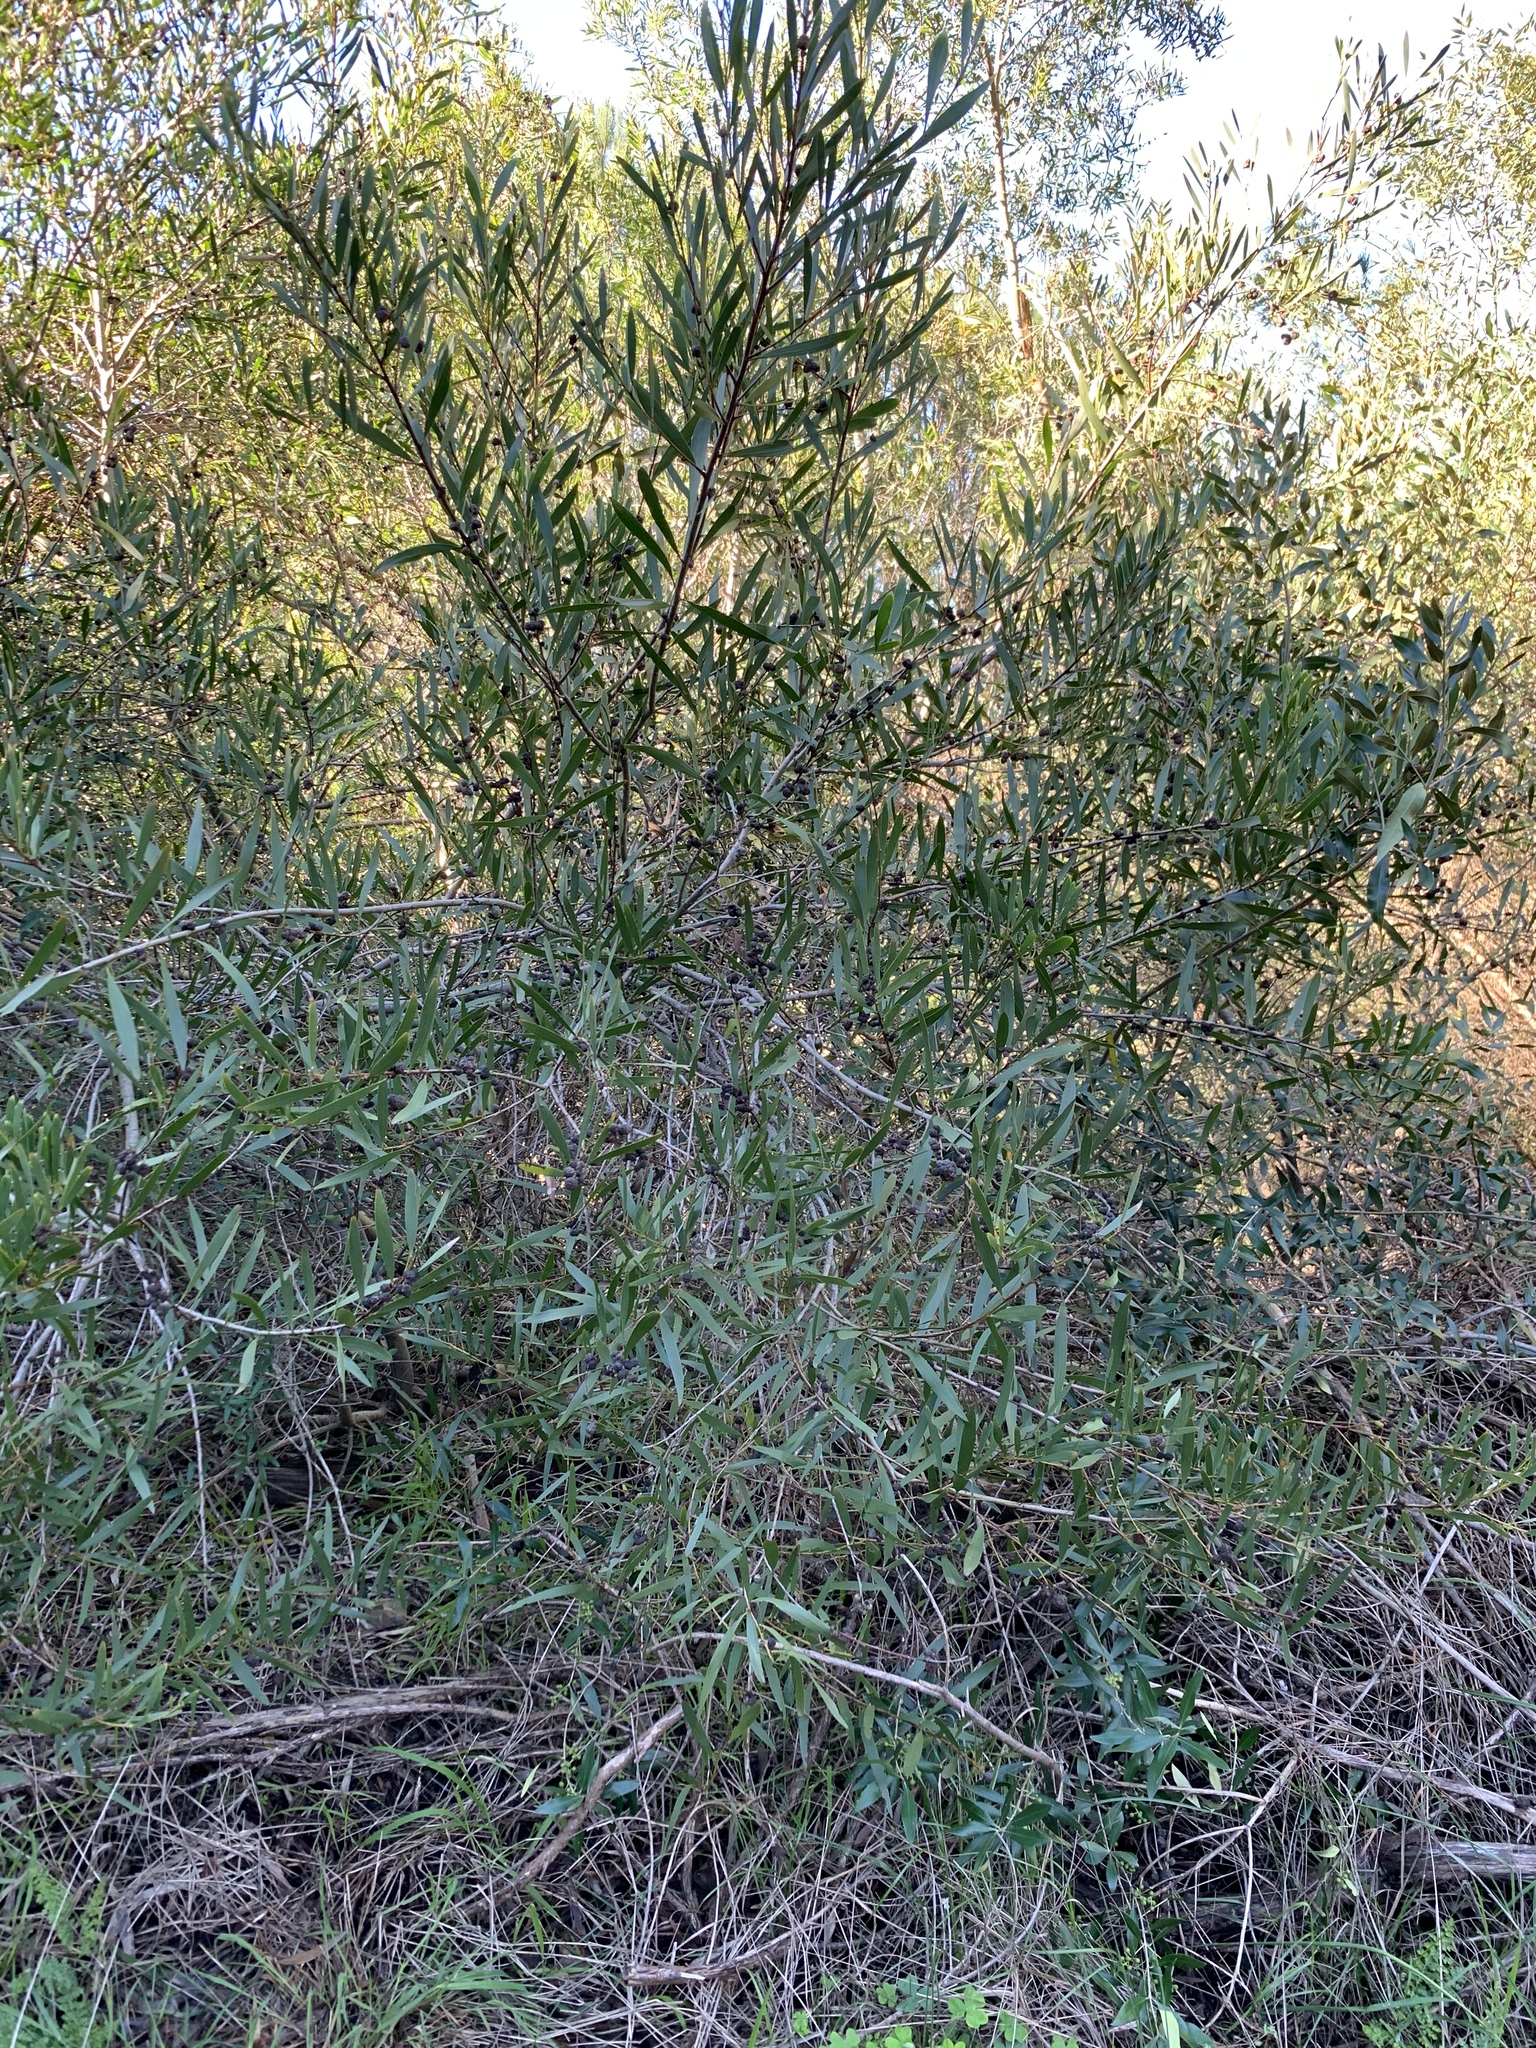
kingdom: Plantae
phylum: Tracheophyta
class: Magnoliopsida
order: Fabales
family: Fabaceae
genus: Acacia
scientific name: Acacia longifolia
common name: Sydney golden wattle
